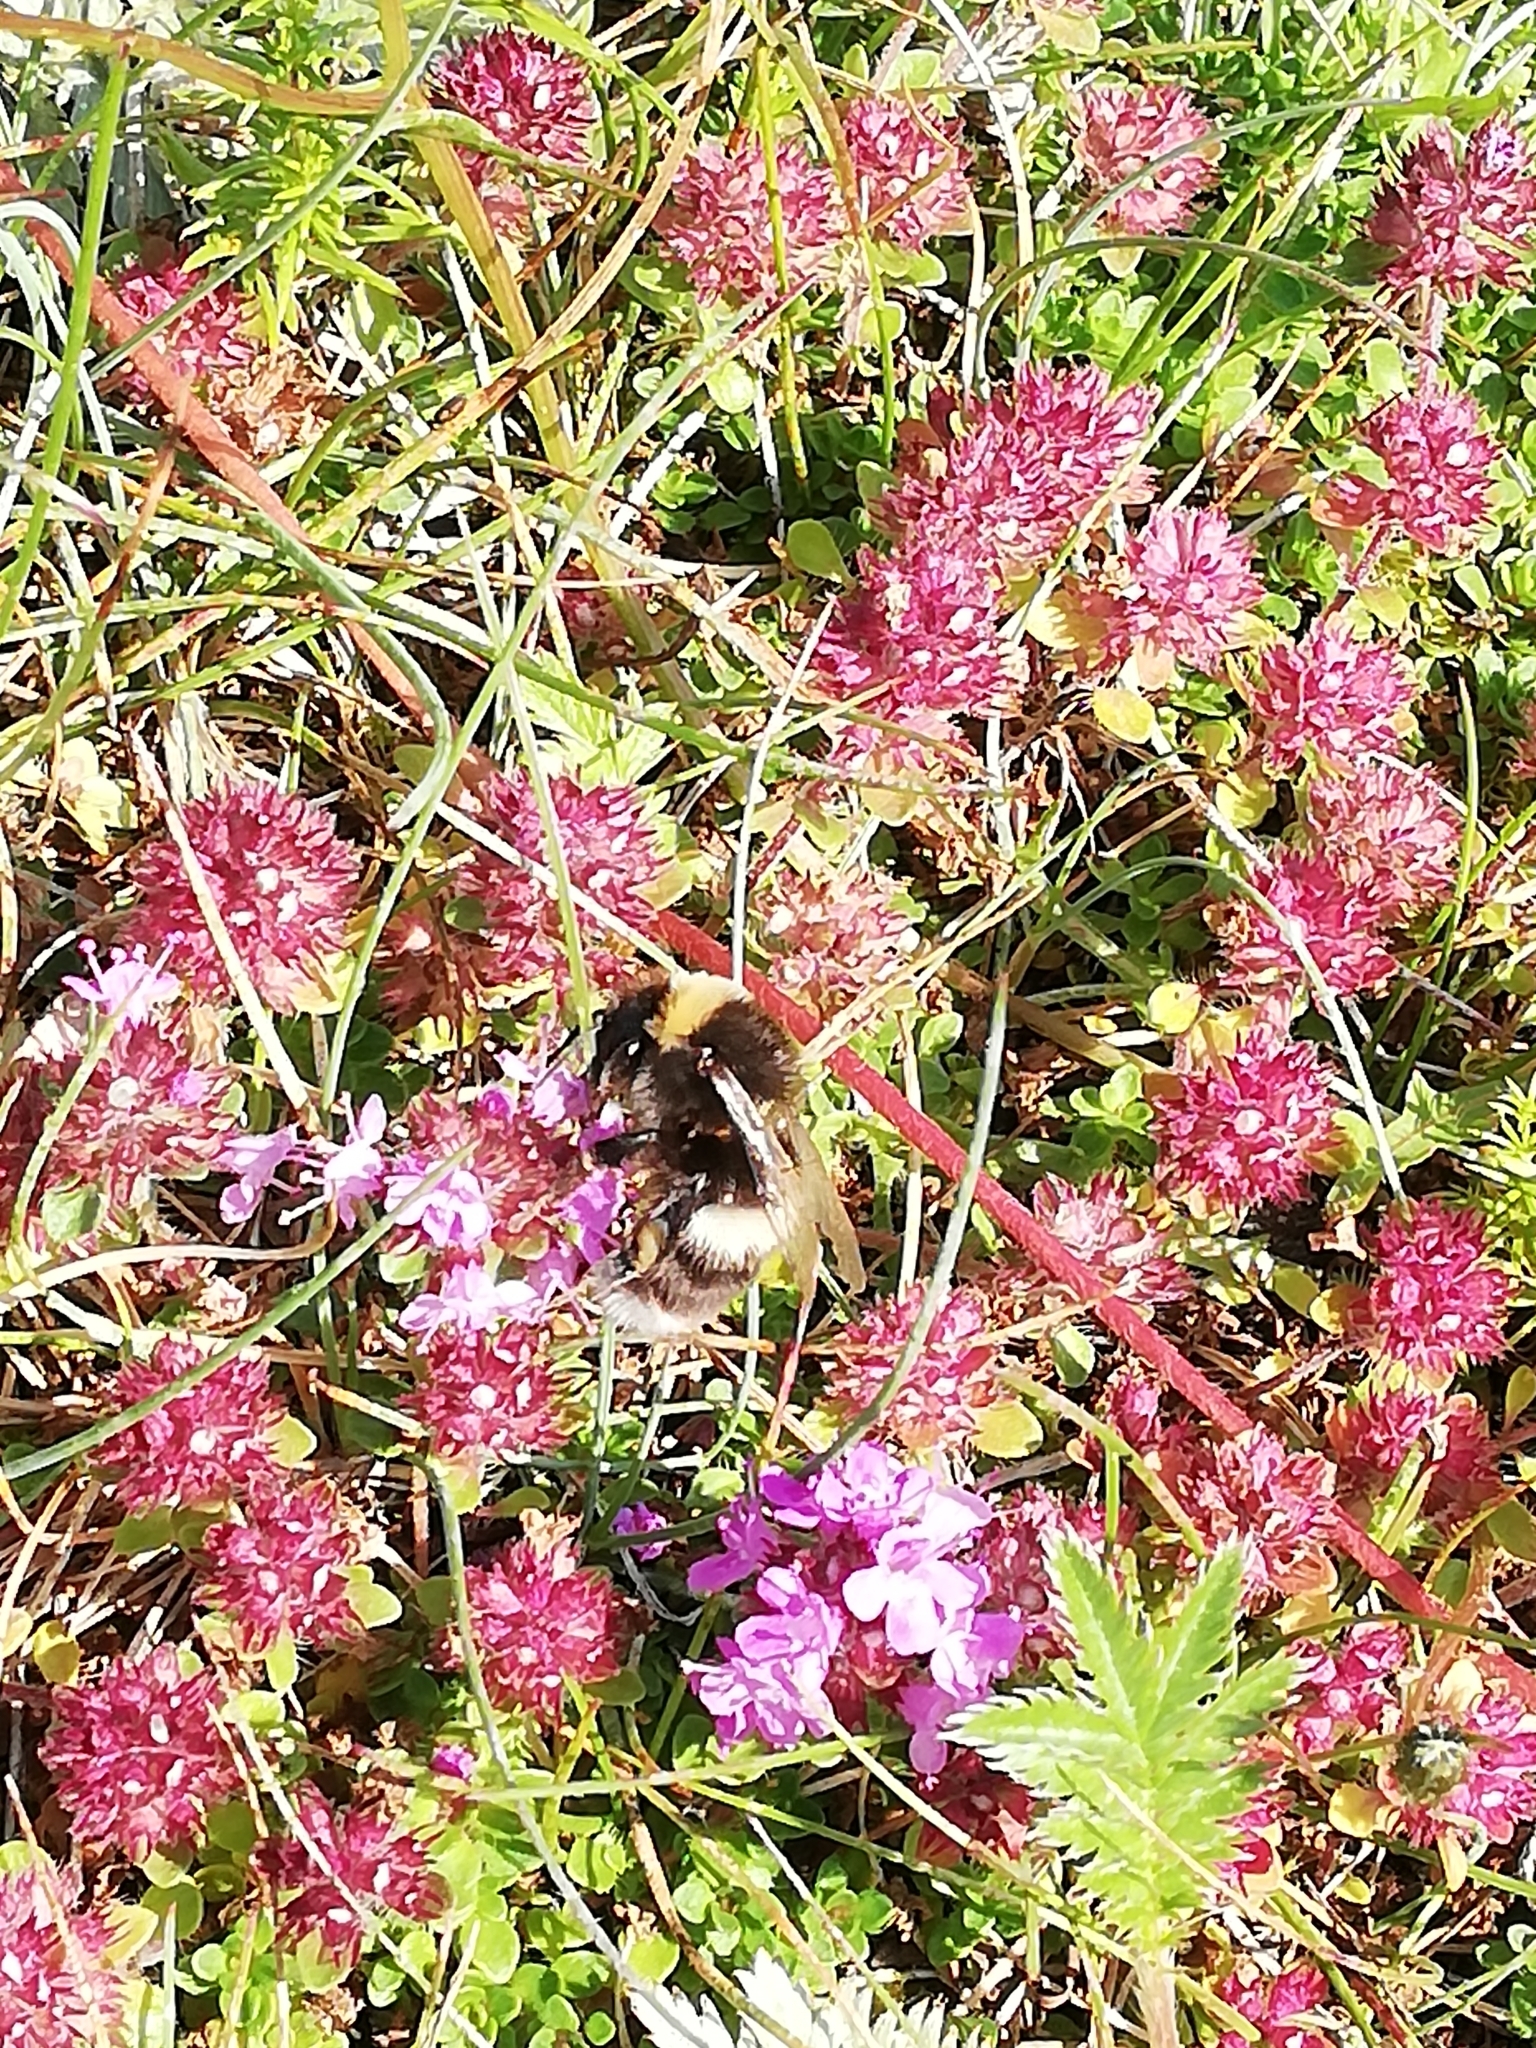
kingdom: Animalia
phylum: Arthropoda
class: Insecta
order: Hymenoptera
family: Apidae
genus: Bombus
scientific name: Bombus lucorum
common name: White-tailed bumblebee
